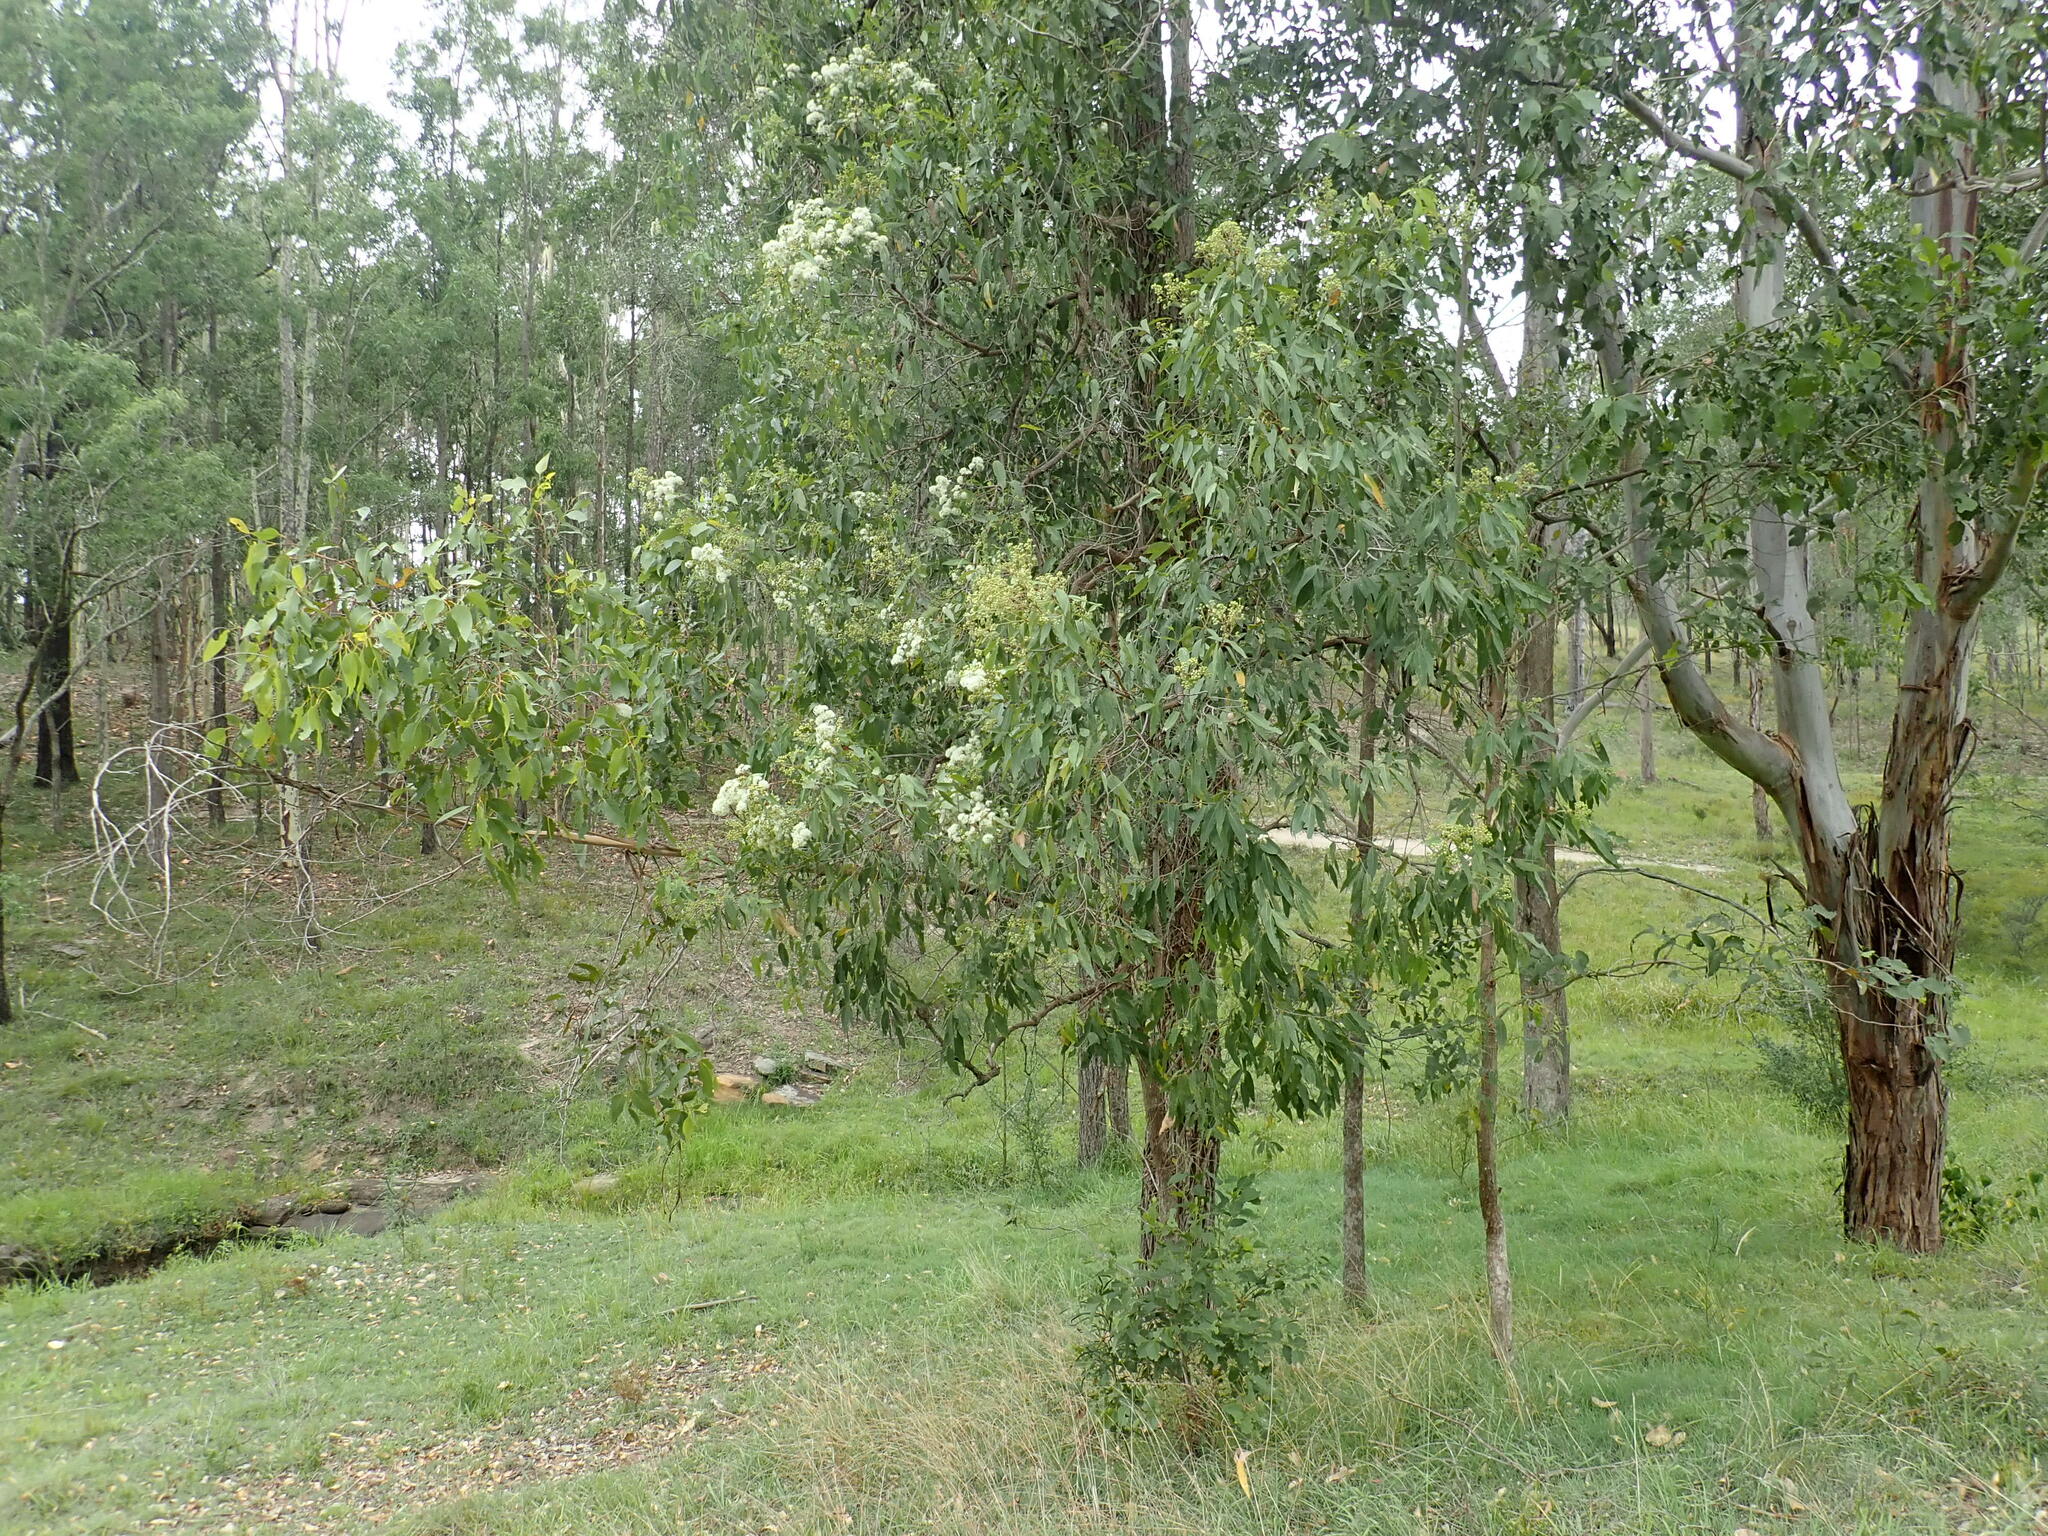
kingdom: Plantae
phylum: Tracheophyta
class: Magnoliopsida
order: Myrtales
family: Myrtaceae
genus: Angophora
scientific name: Angophora floribunda
